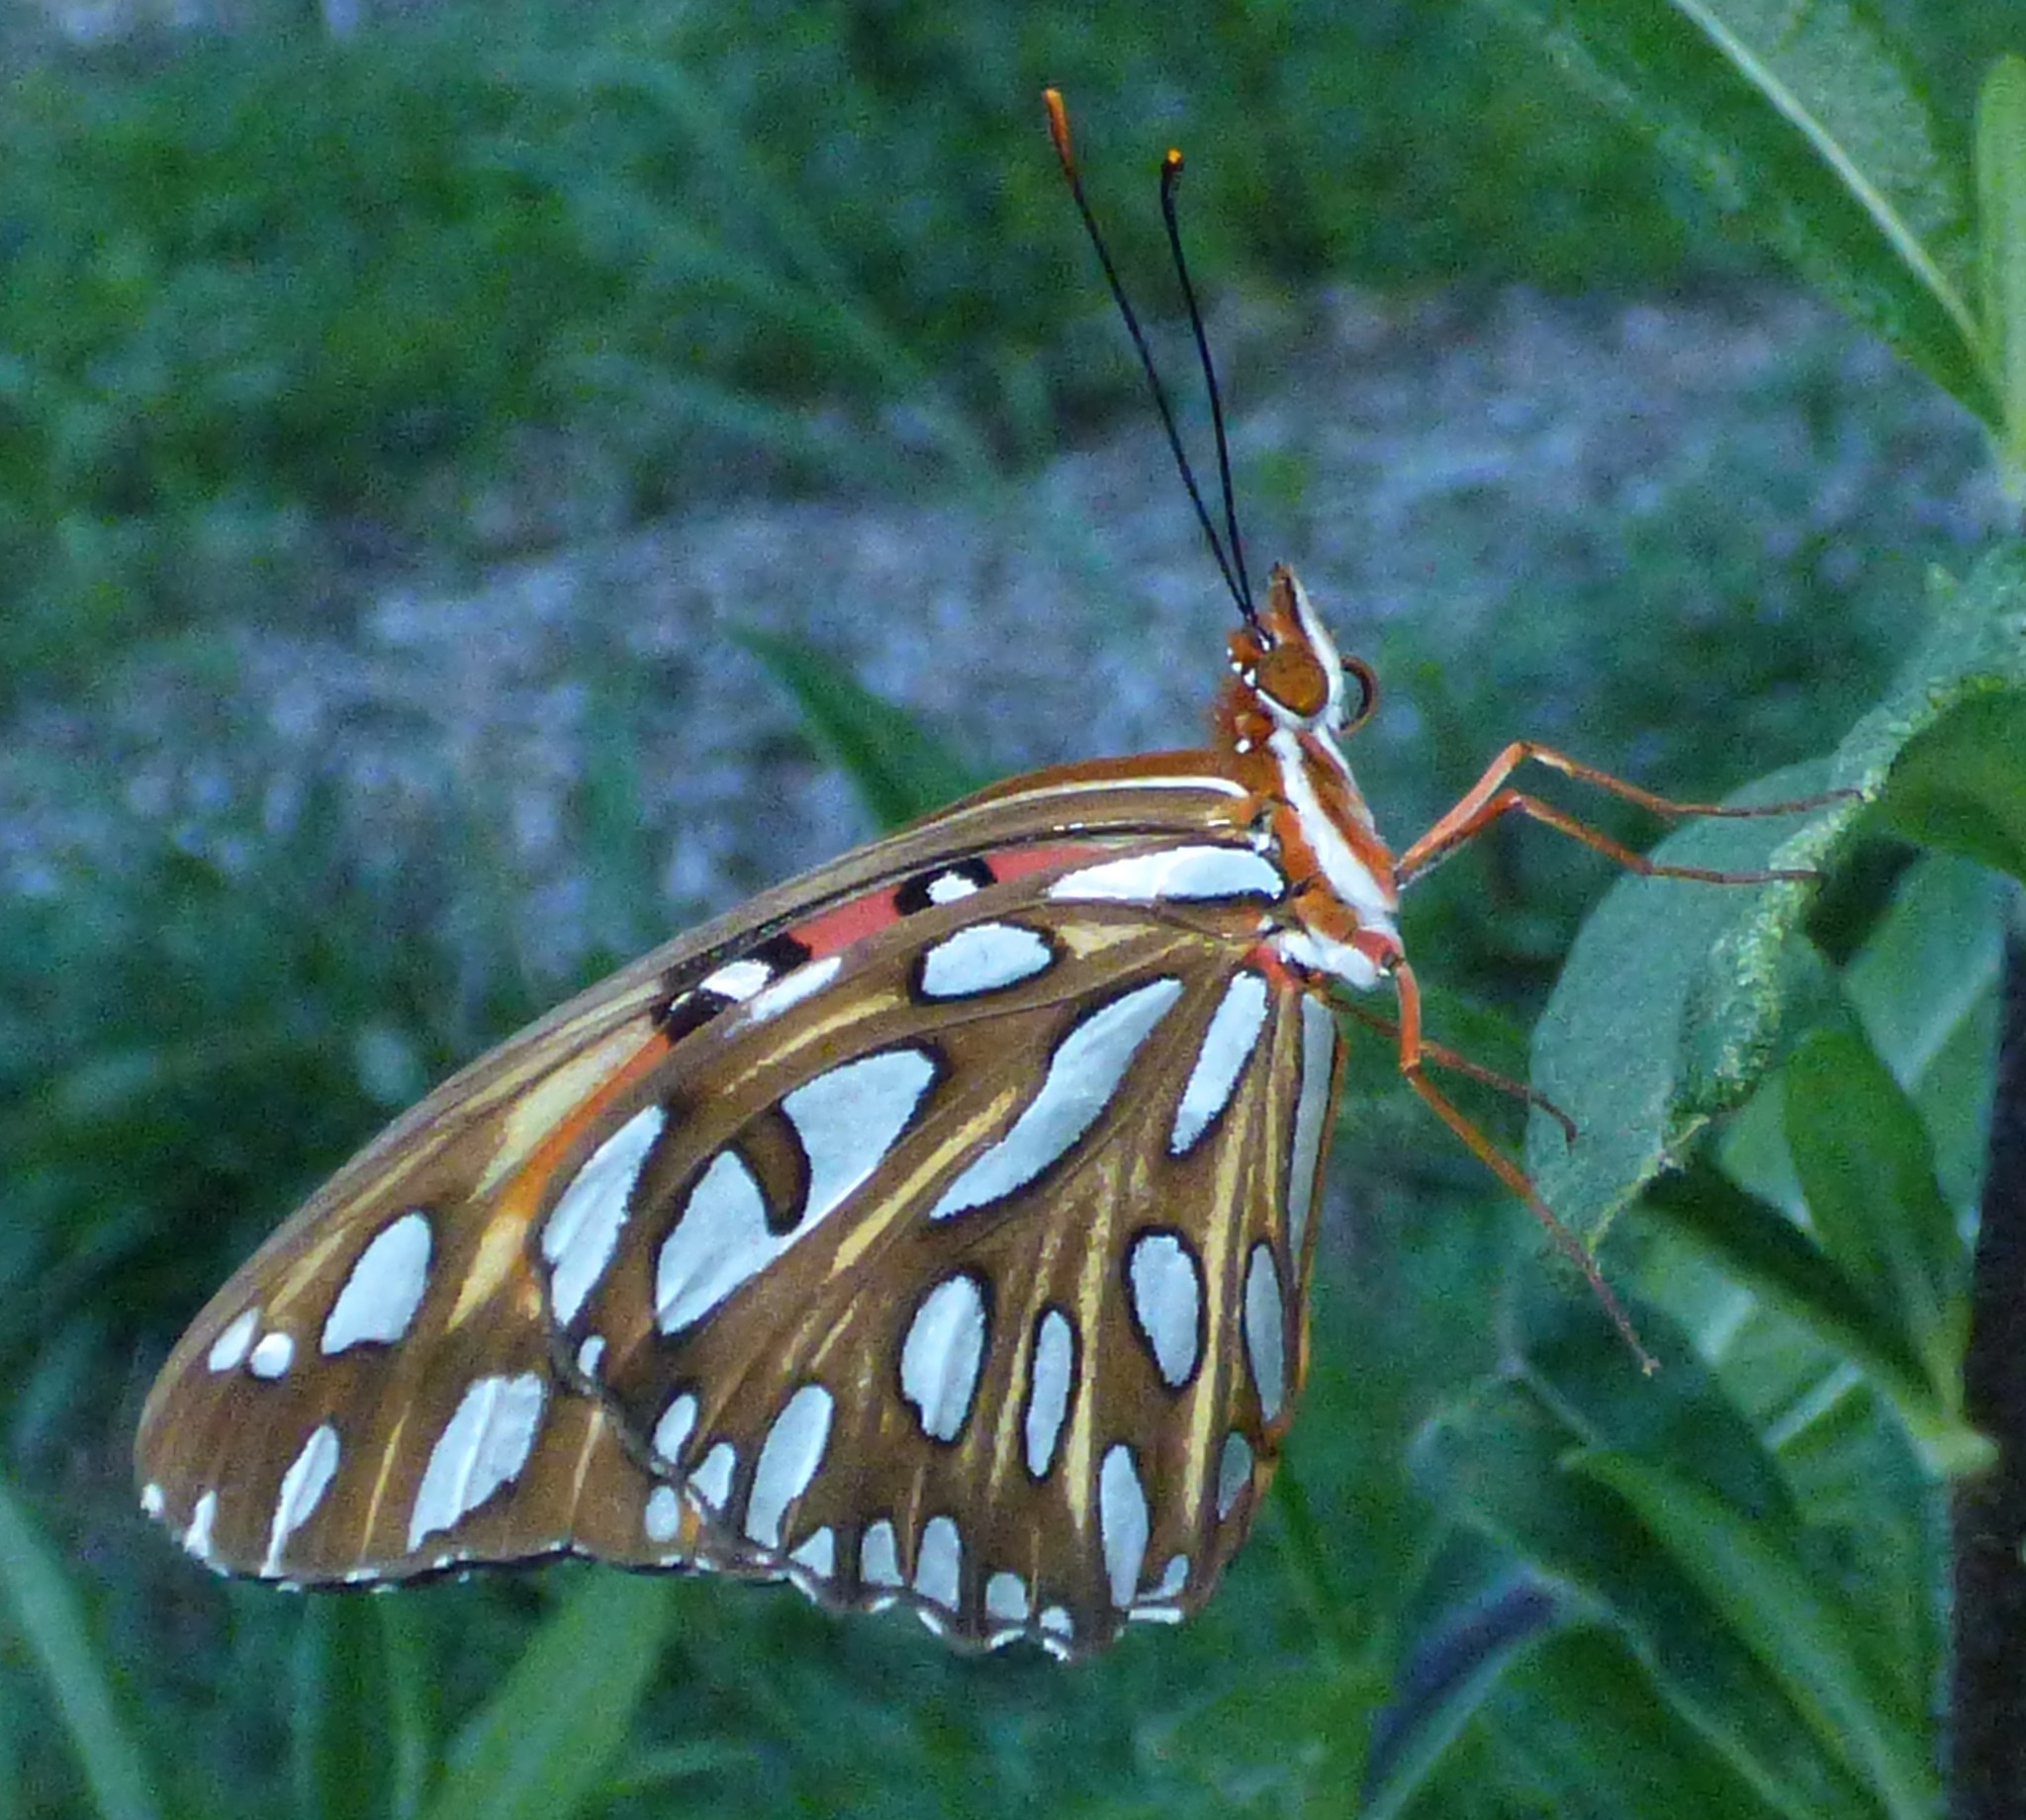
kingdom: Animalia
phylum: Arthropoda
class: Insecta
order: Lepidoptera
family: Nymphalidae
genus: Dione
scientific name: Dione vanillae
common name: Gulf fritillary
